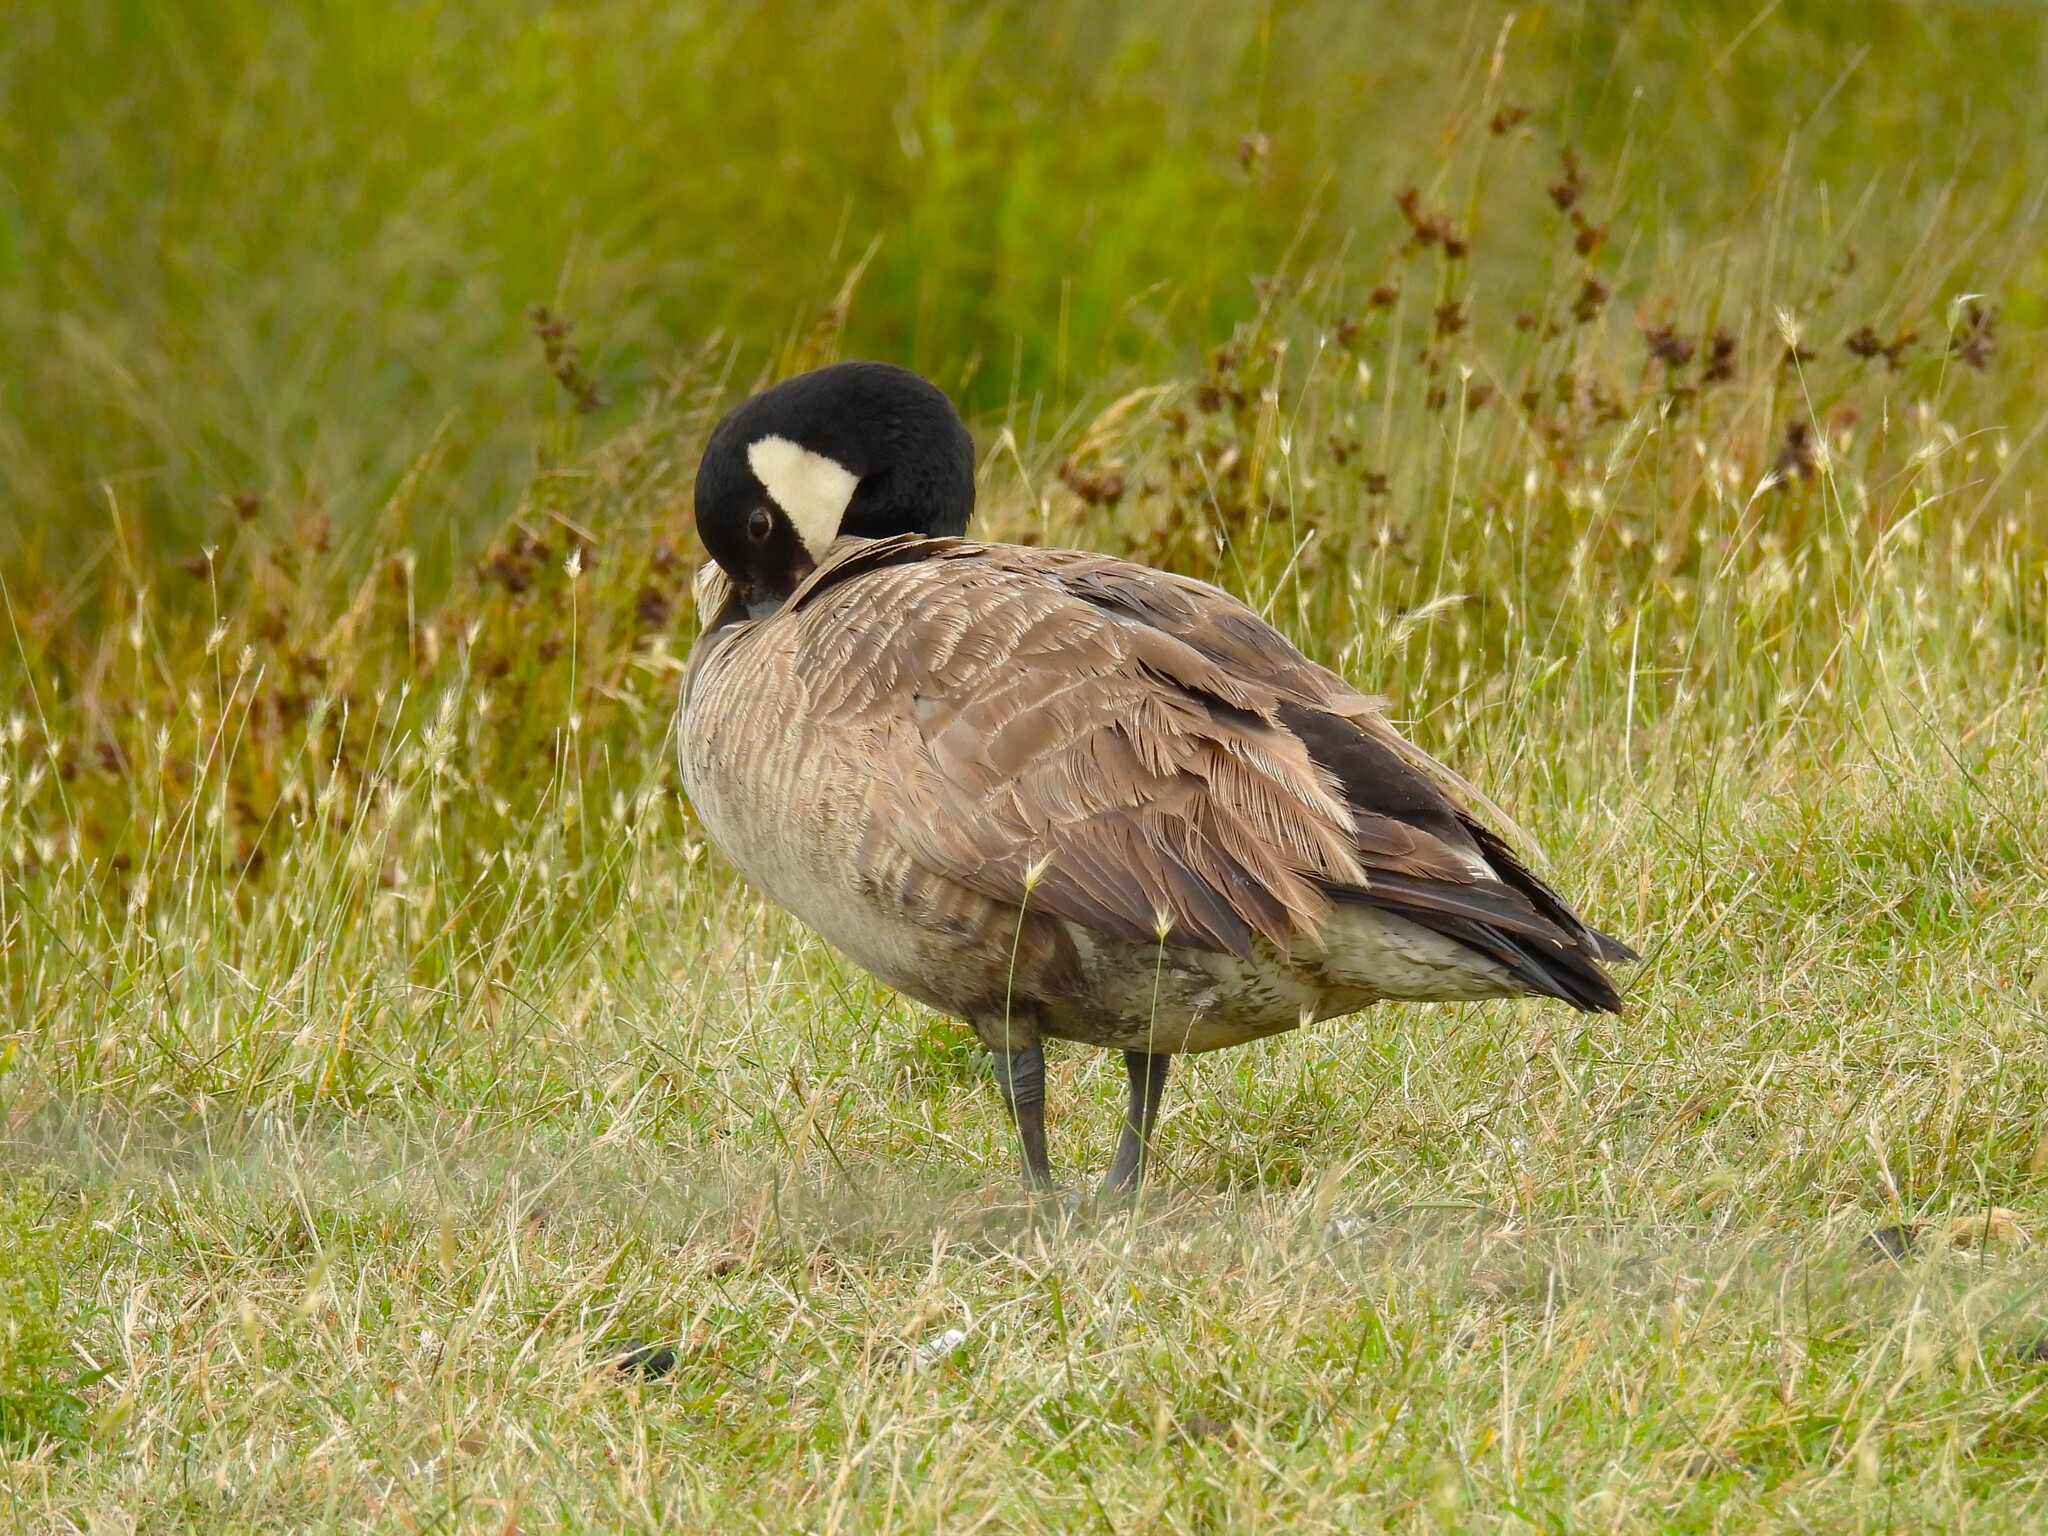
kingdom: Animalia
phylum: Chordata
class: Aves
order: Anseriformes
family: Anatidae
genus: Branta
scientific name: Branta canadensis
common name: Canada goose
